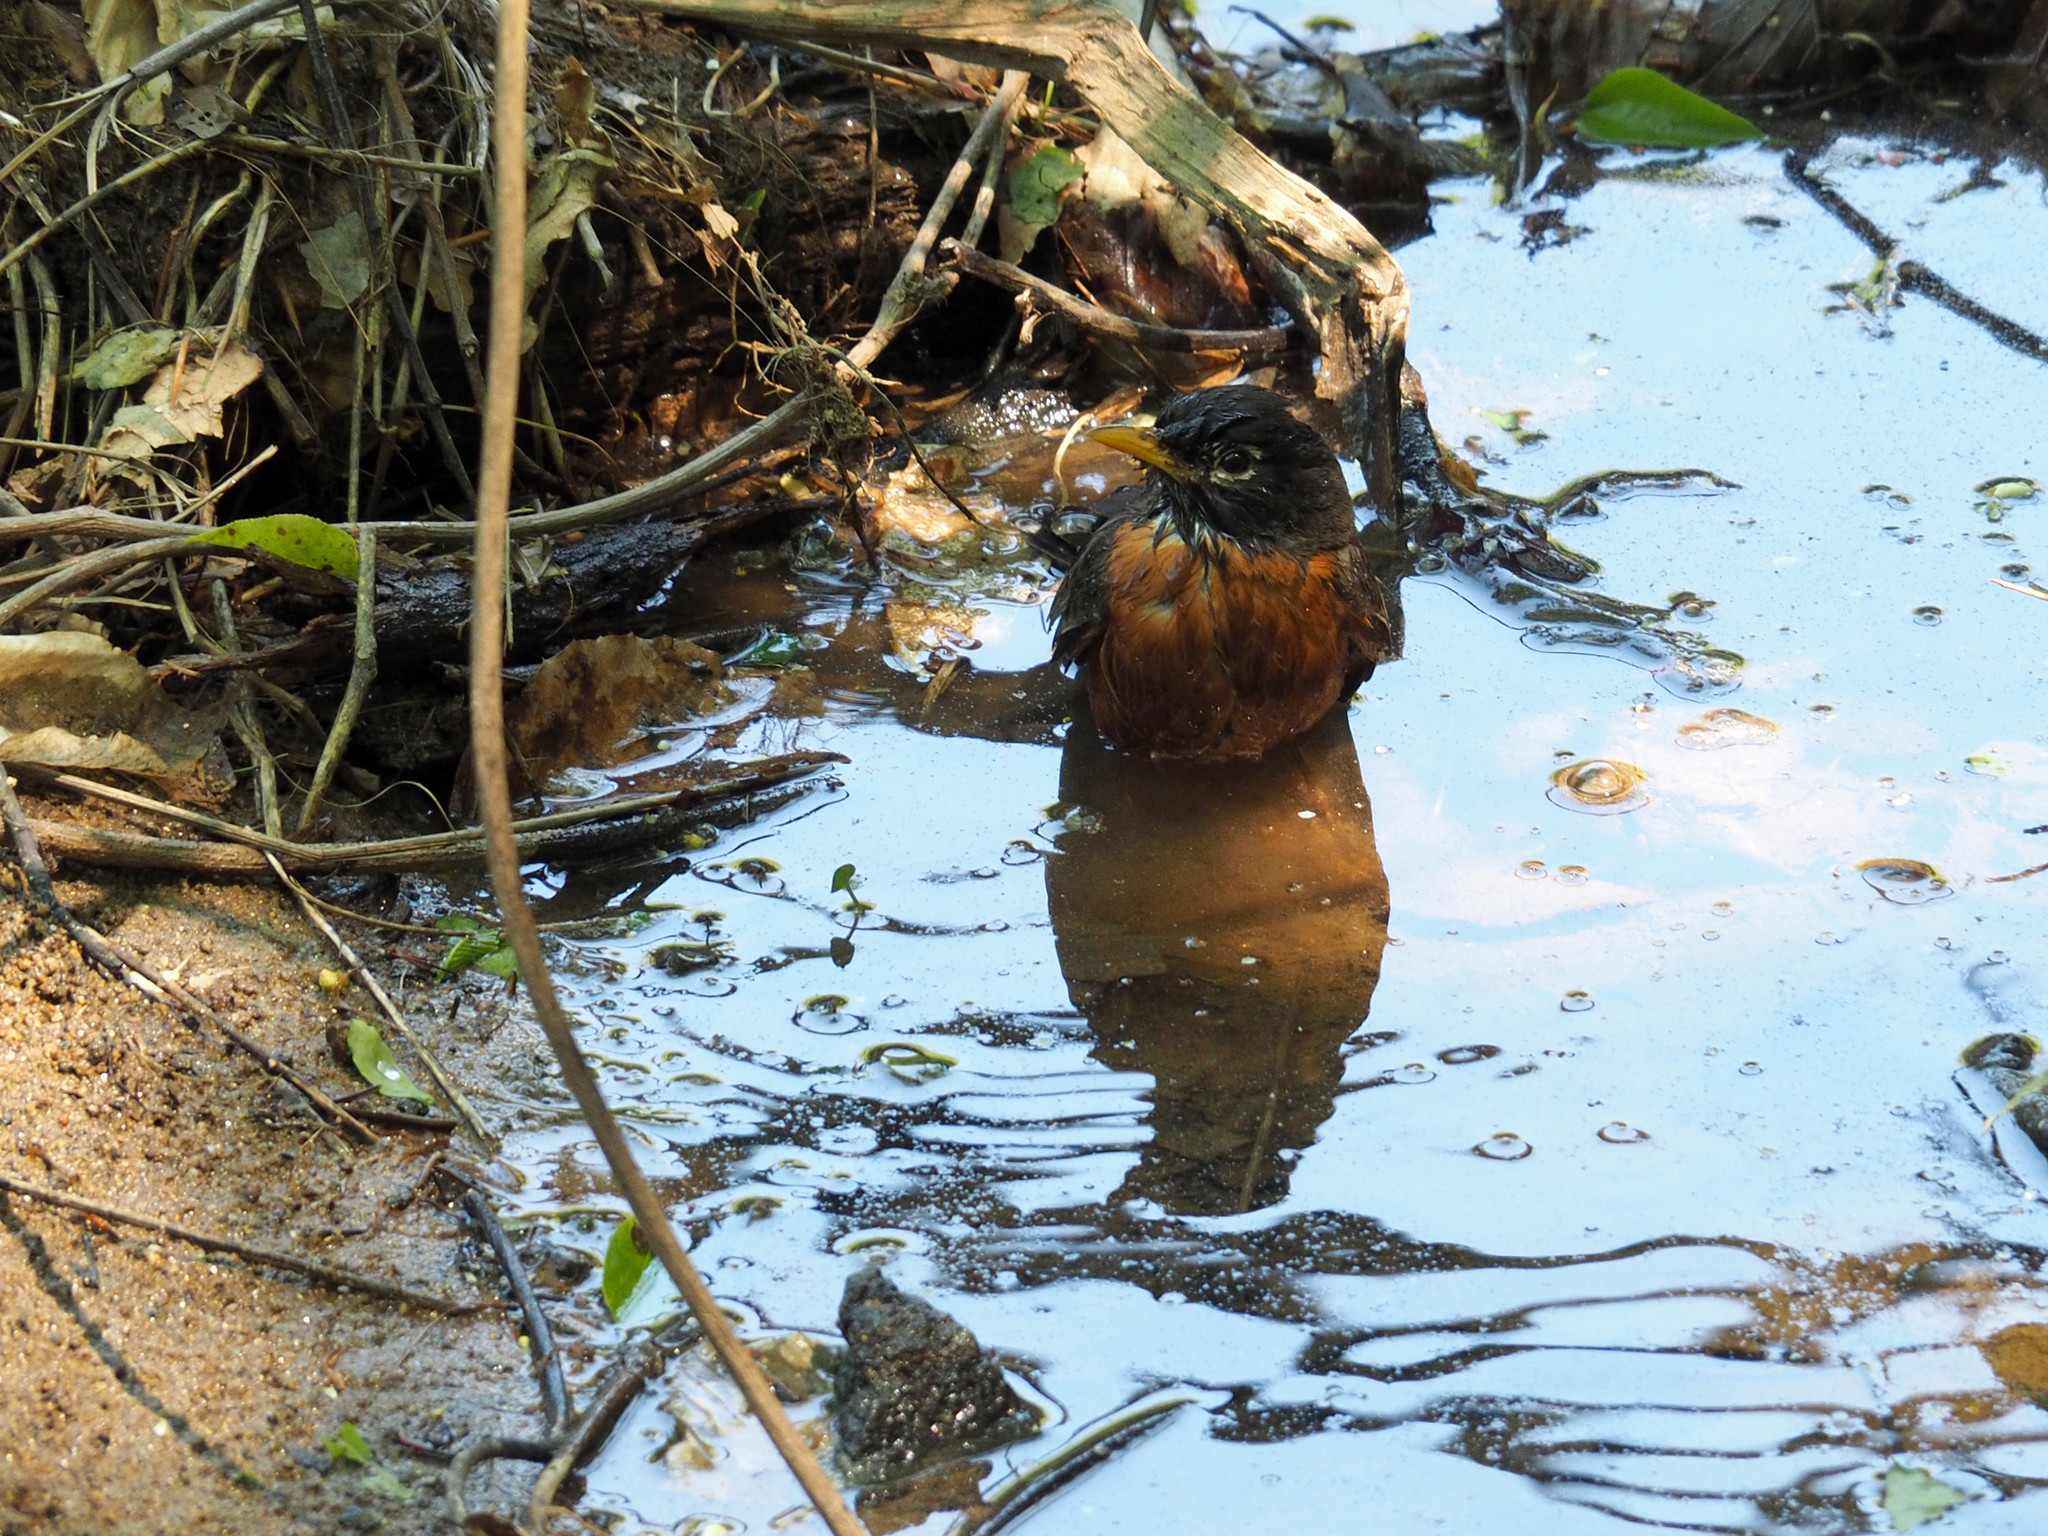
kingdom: Animalia
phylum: Chordata
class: Aves
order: Passeriformes
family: Turdidae
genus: Turdus
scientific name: Turdus migratorius
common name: American robin
